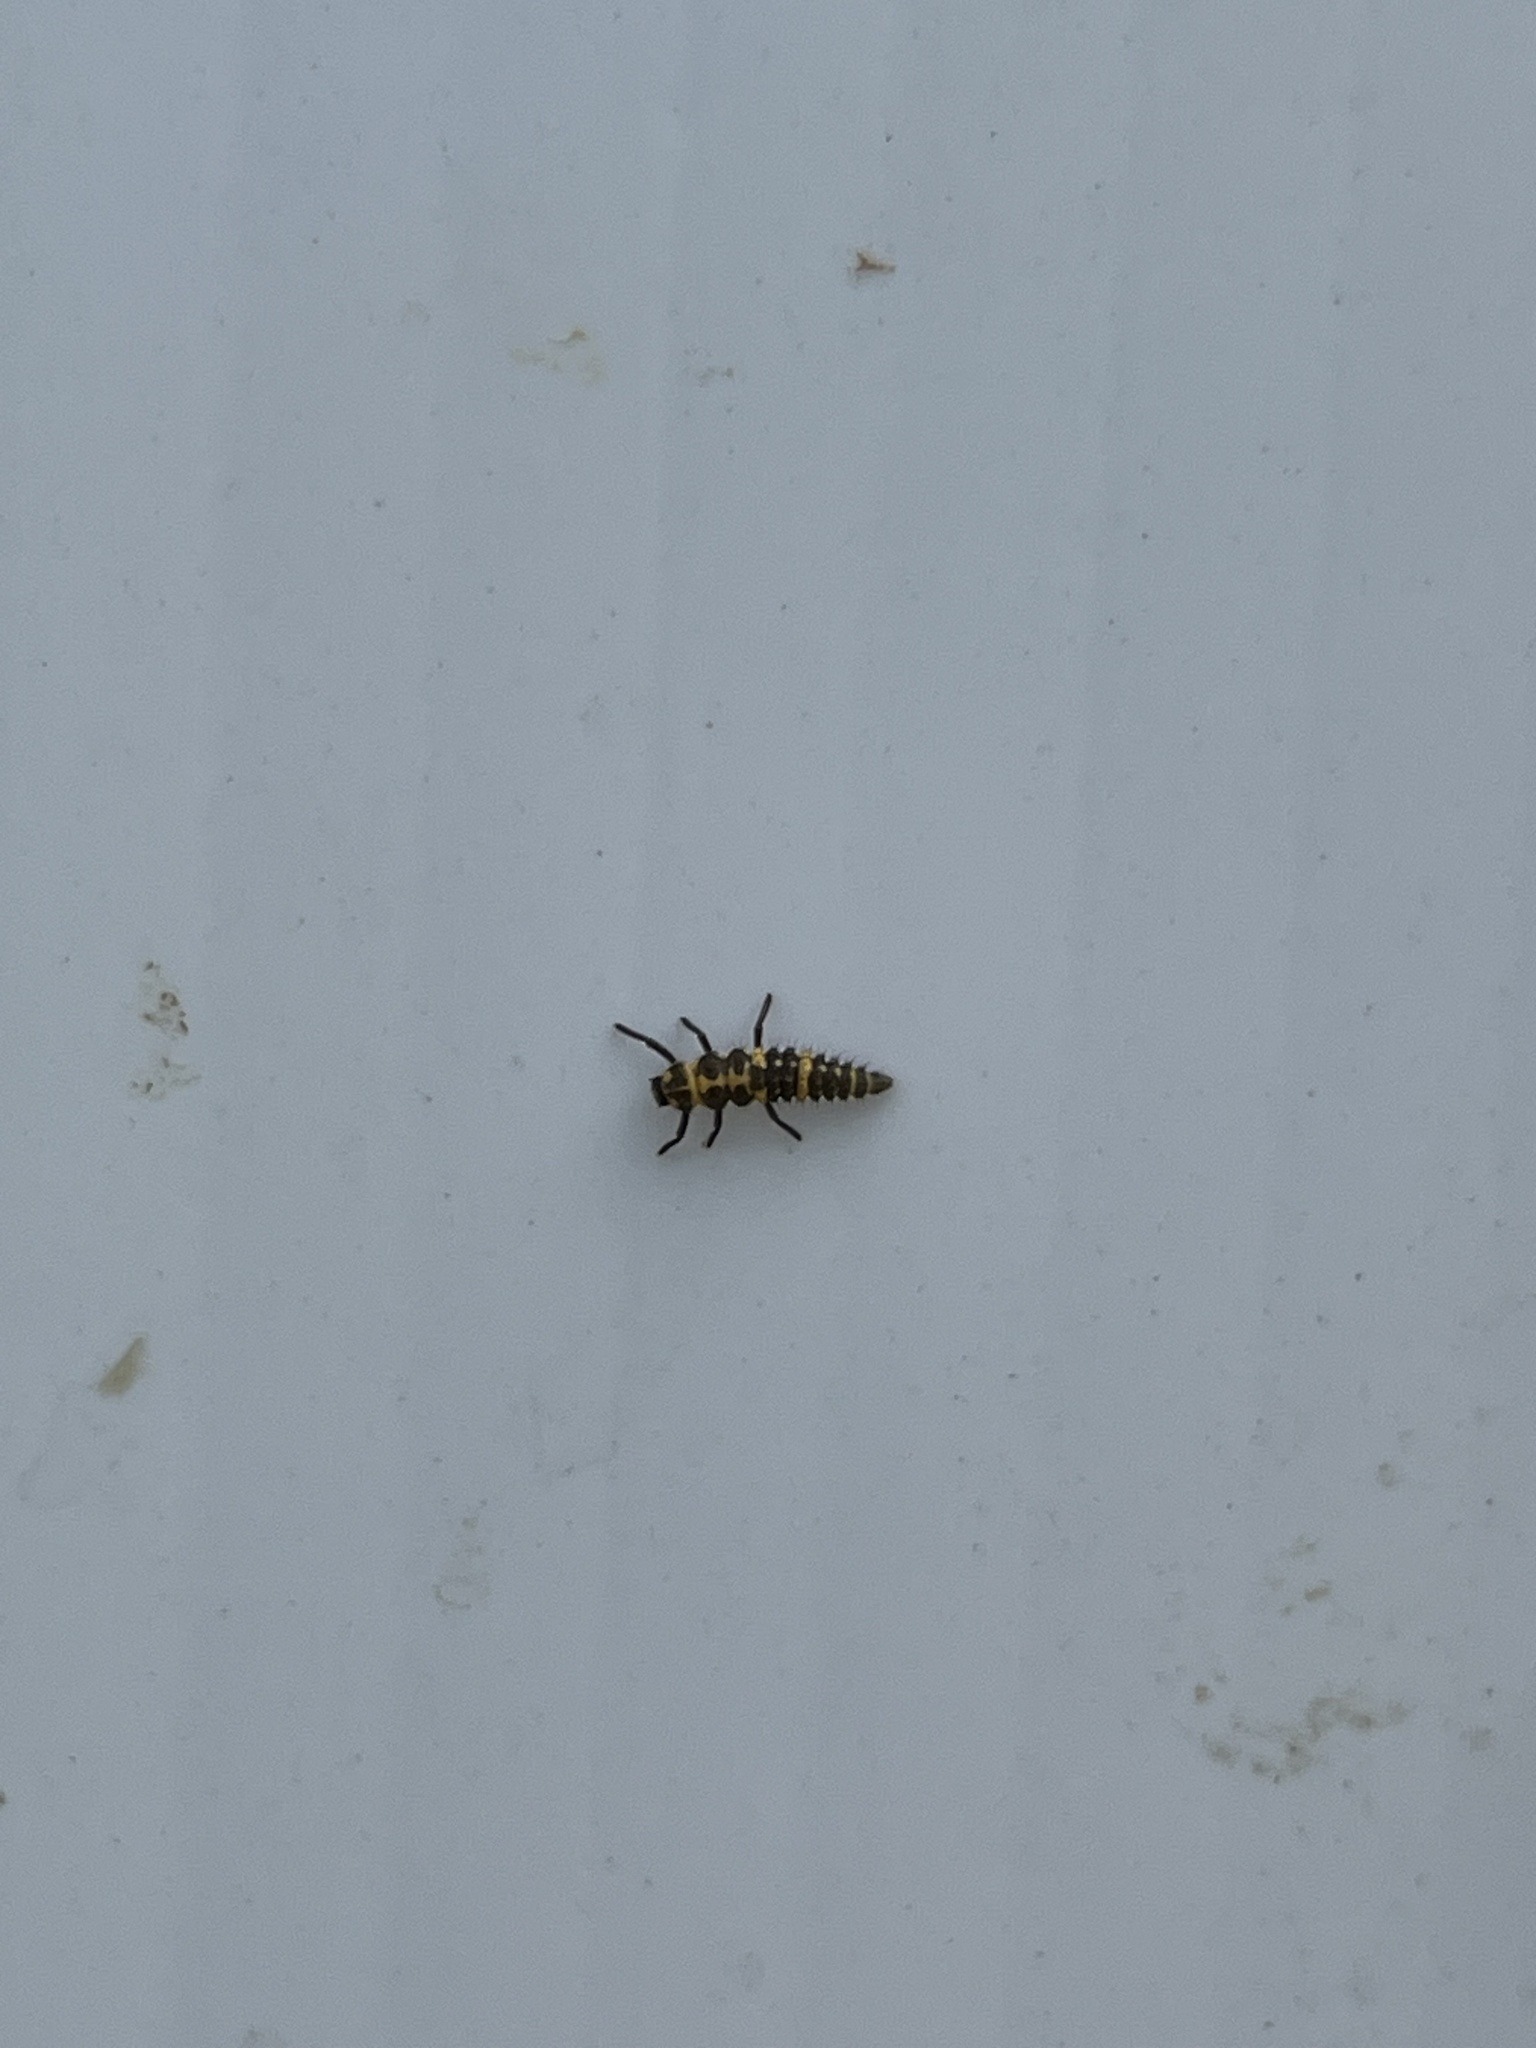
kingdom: Animalia
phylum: Arthropoda
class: Insecta
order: Coleoptera
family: Coccinellidae
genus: Coleomegilla
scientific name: Coleomegilla maculata
